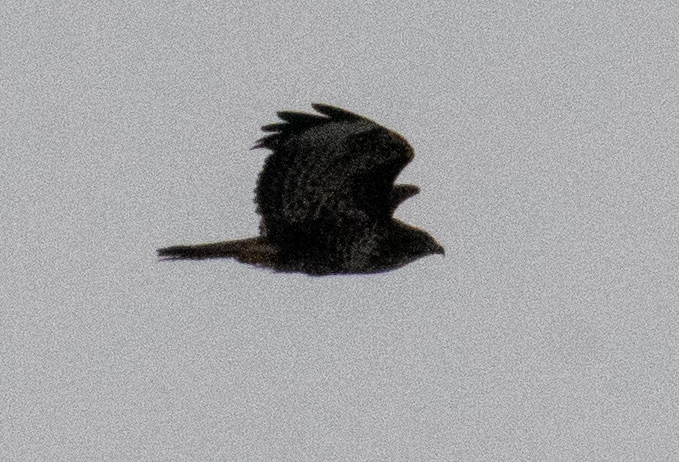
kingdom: Animalia
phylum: Chordata
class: Aves
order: Accipitriformes
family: Accipitridae
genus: Buteo
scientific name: Buteo buteo
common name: Common buzzard
